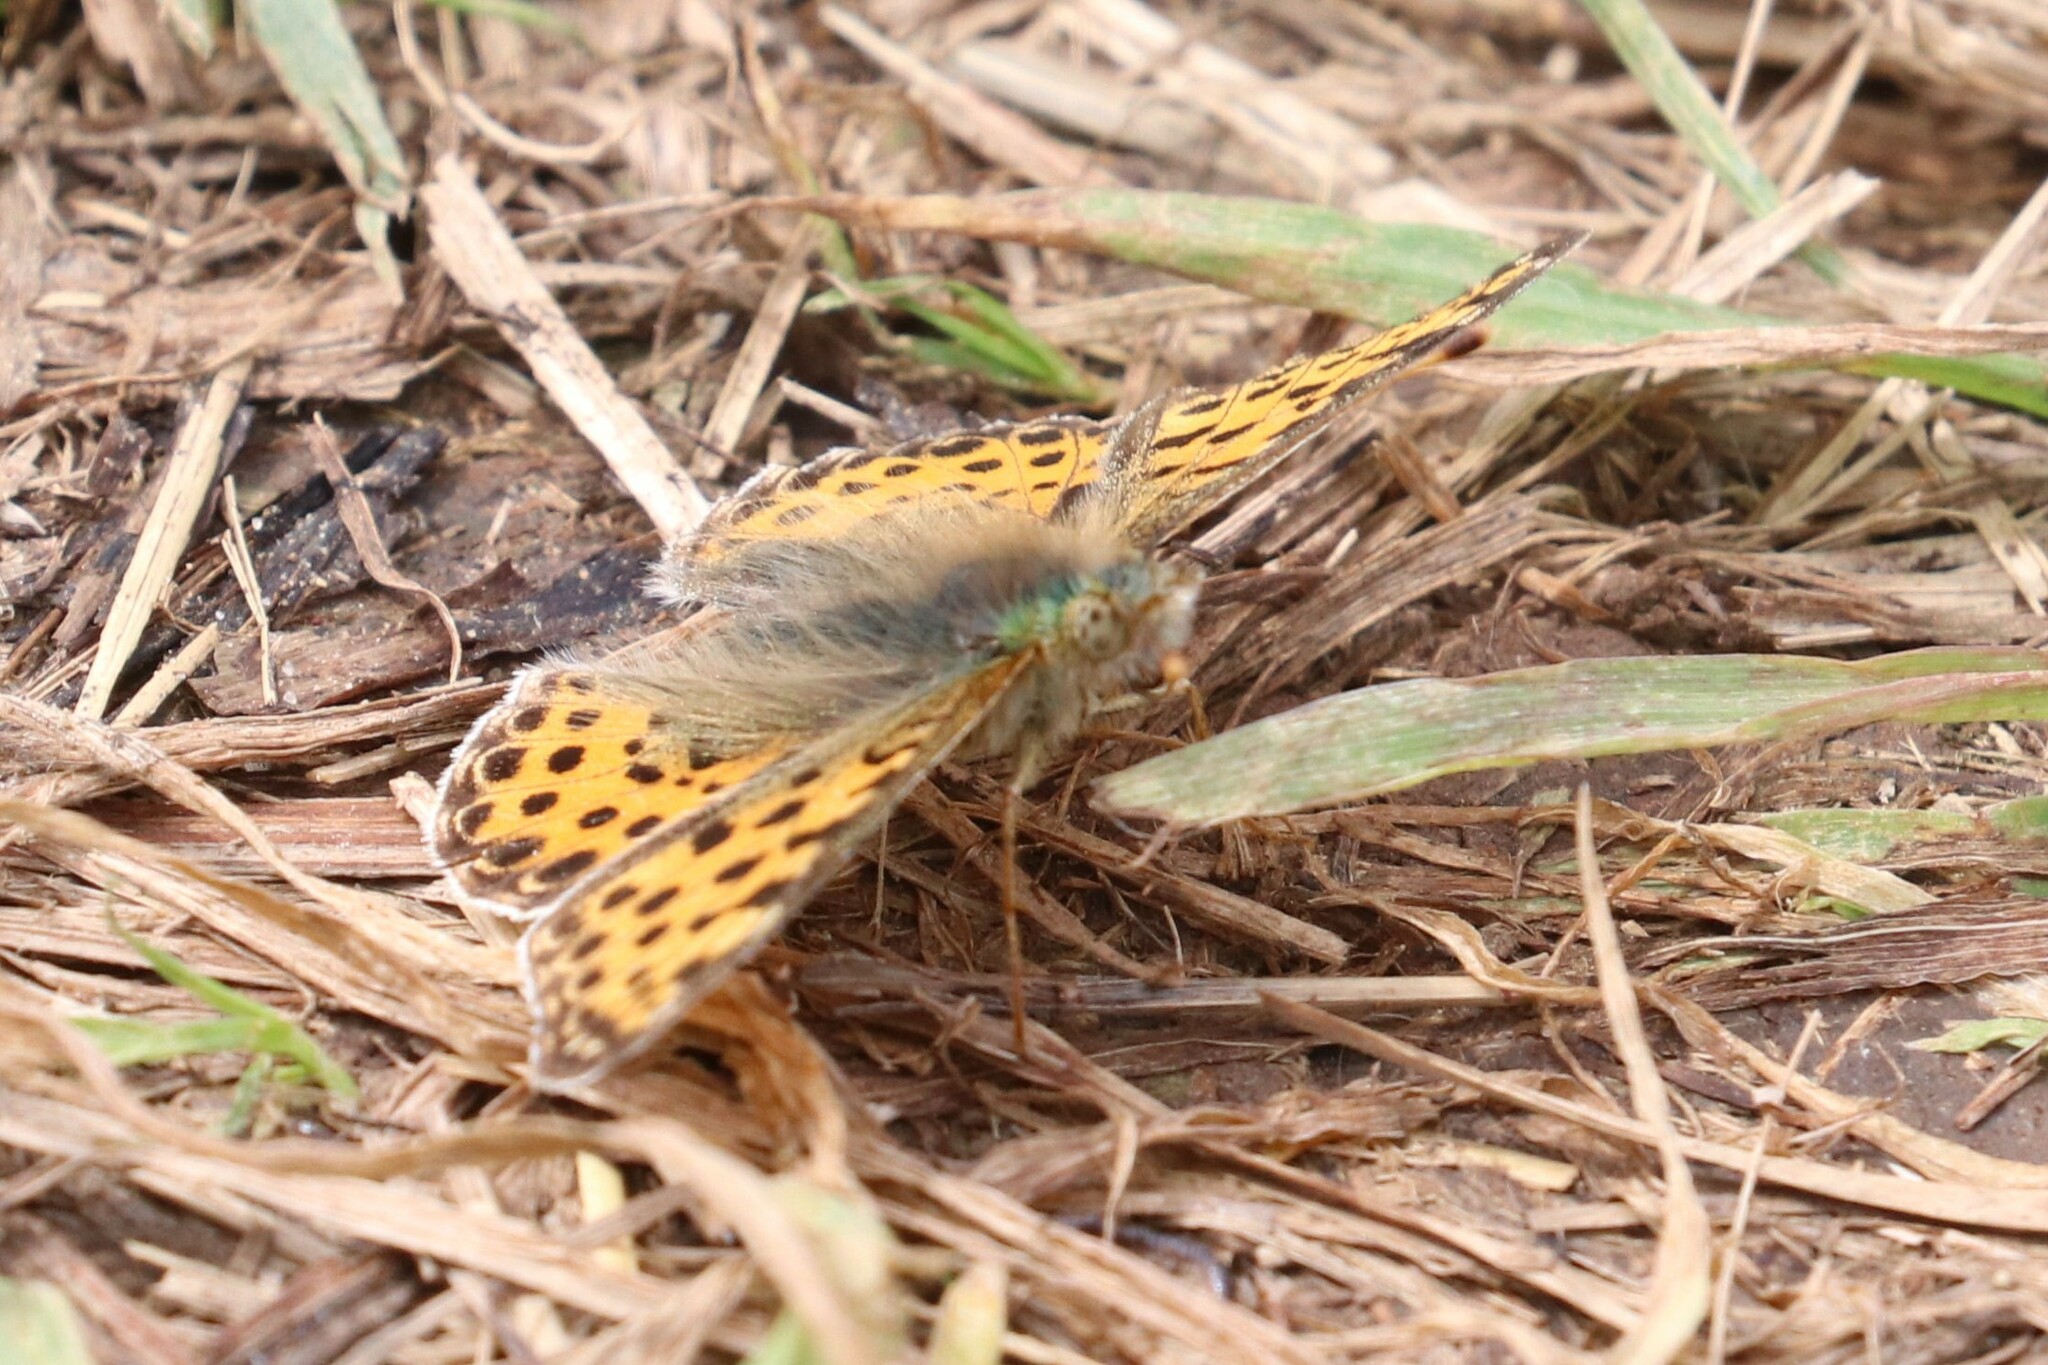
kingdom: Animalia
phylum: Arthropoda
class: Insecta
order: Lepidoptera
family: Nymphalidae
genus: Issoria
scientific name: Issoria lathonia
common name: Queen of spain fritillary
